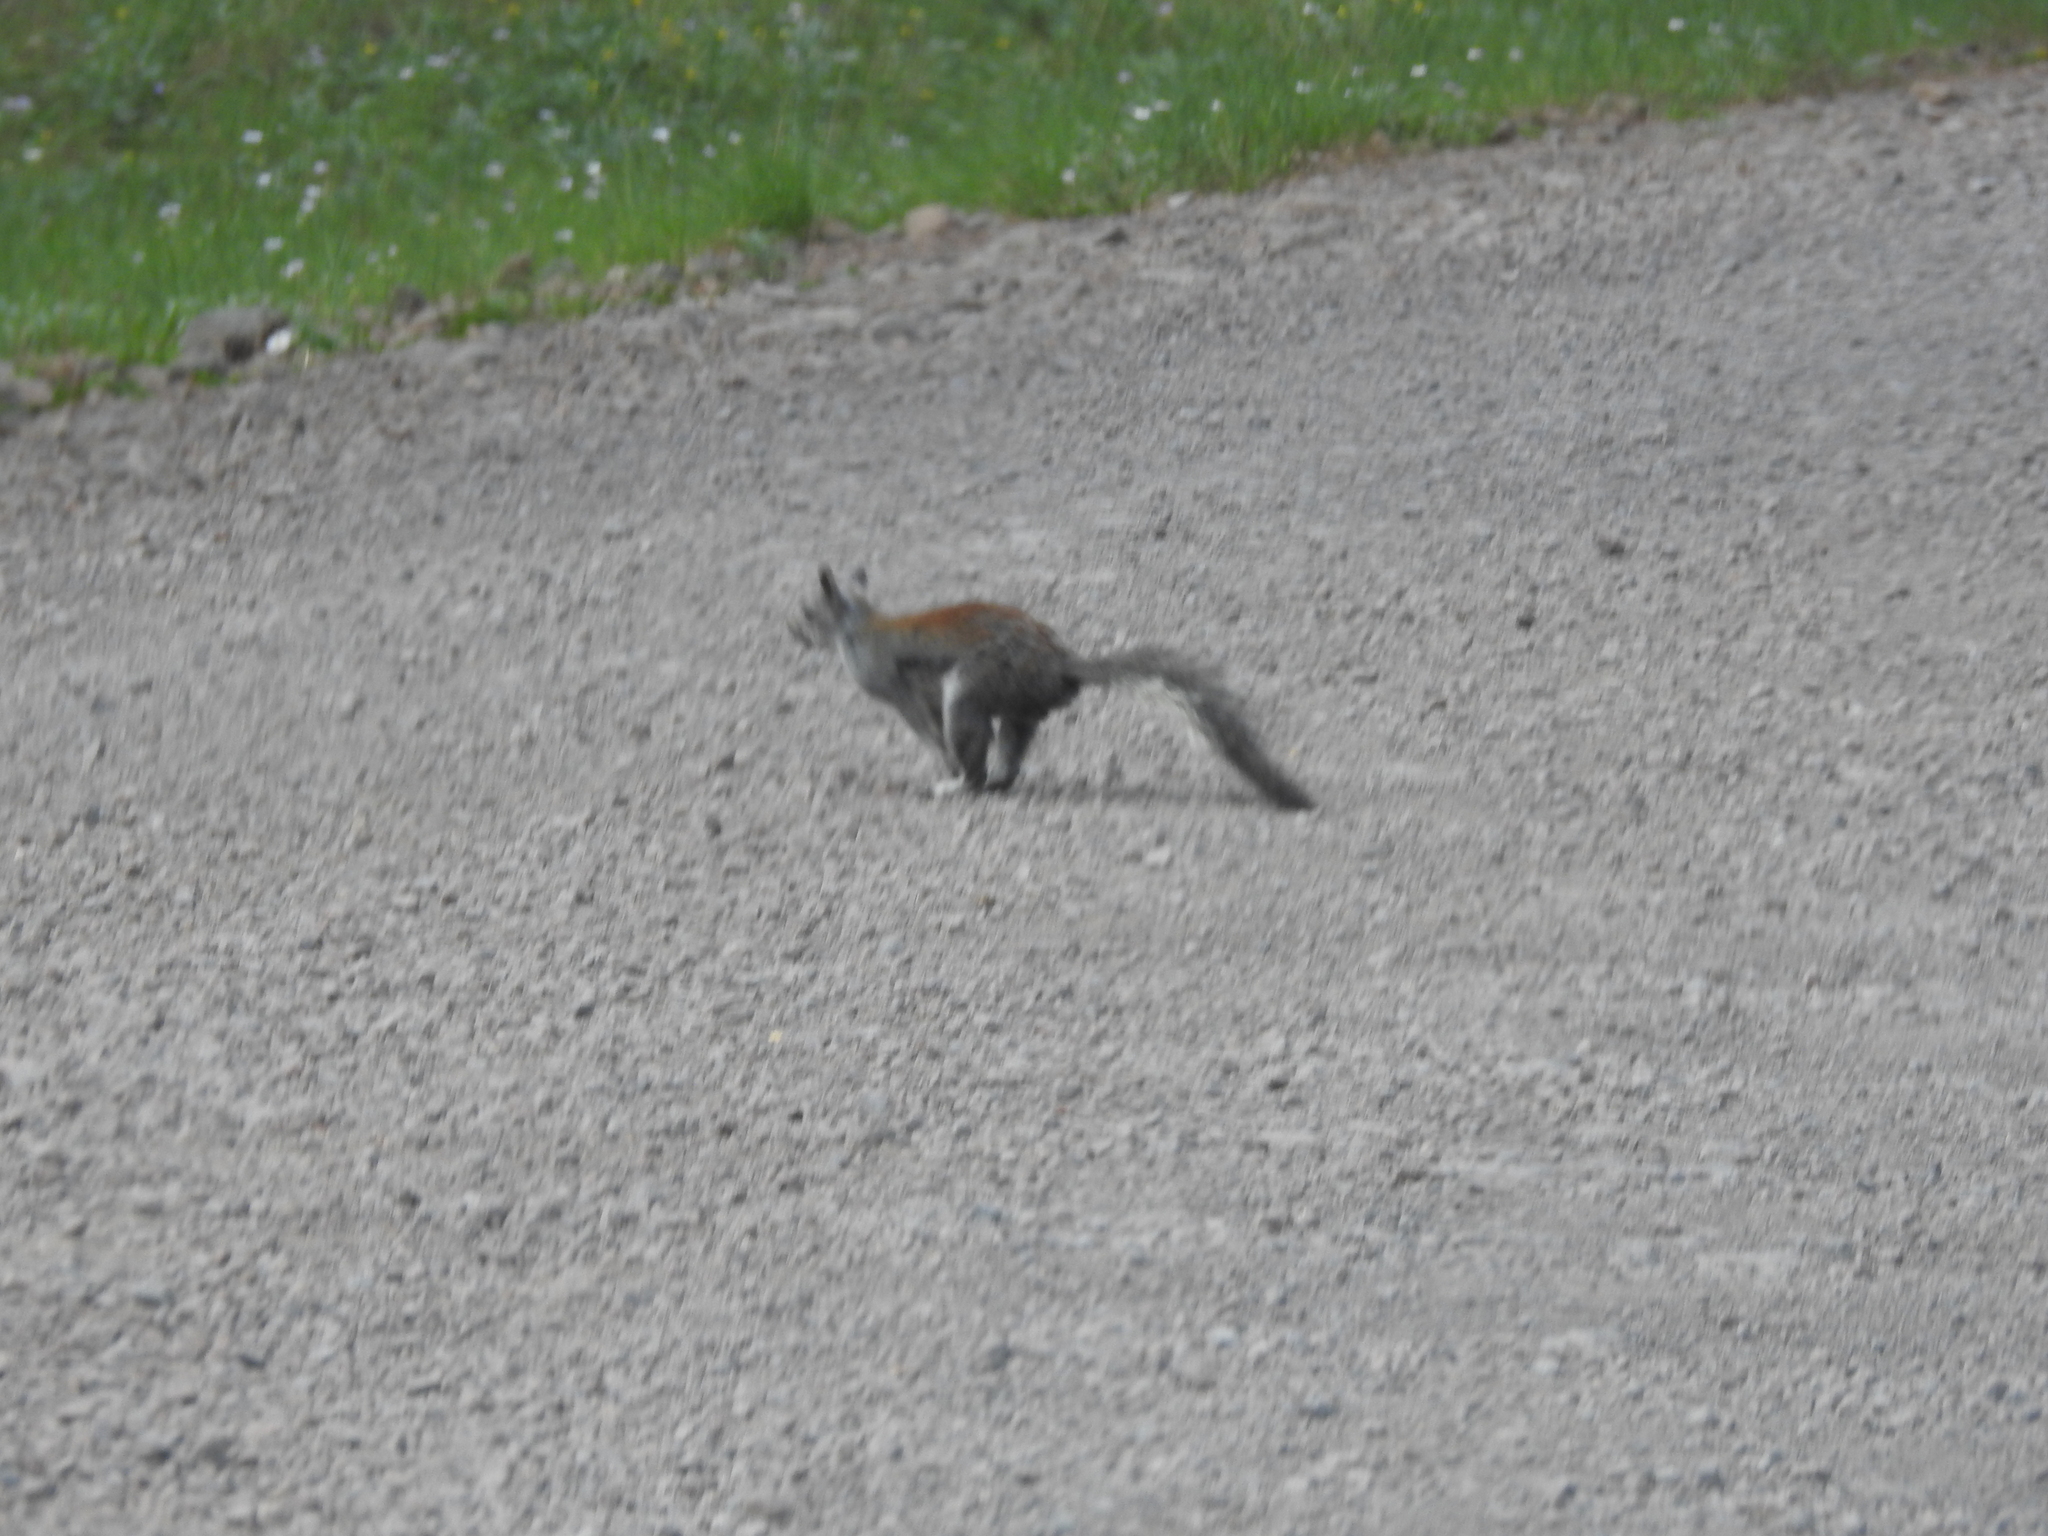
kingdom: Animalia
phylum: Chordata
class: Mammalia
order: Rodentia
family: Sciuridae
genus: Sciurus
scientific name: Sciurus aberti
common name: Abert's squirrel
